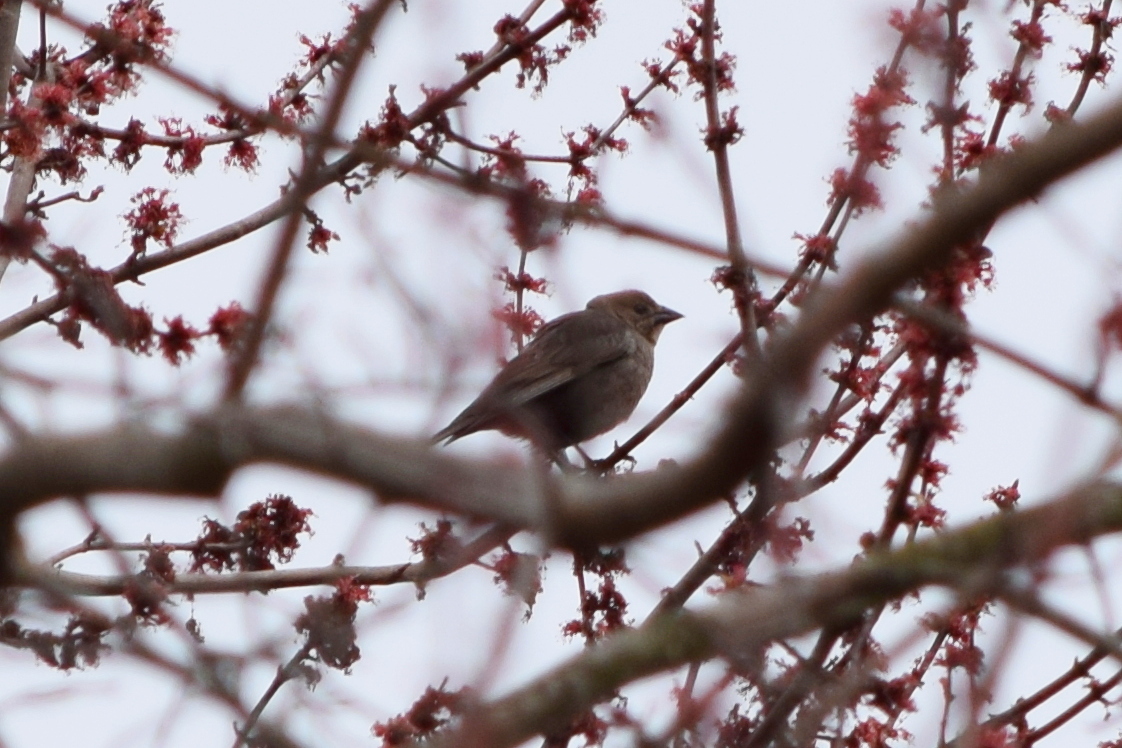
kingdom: Animalia
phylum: Chordata
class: Aves
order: Passeriformes
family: Icteridae
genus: Molothrus
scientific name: Molothrus ater
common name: Brown-headed cowbird
